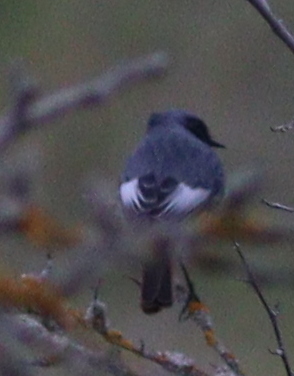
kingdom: Animalia
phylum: Chordata
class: Aves
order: Passeriformes
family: Muscicapidae
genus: Phoenicurus
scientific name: Phoenicurus ochruros
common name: Black redstart
